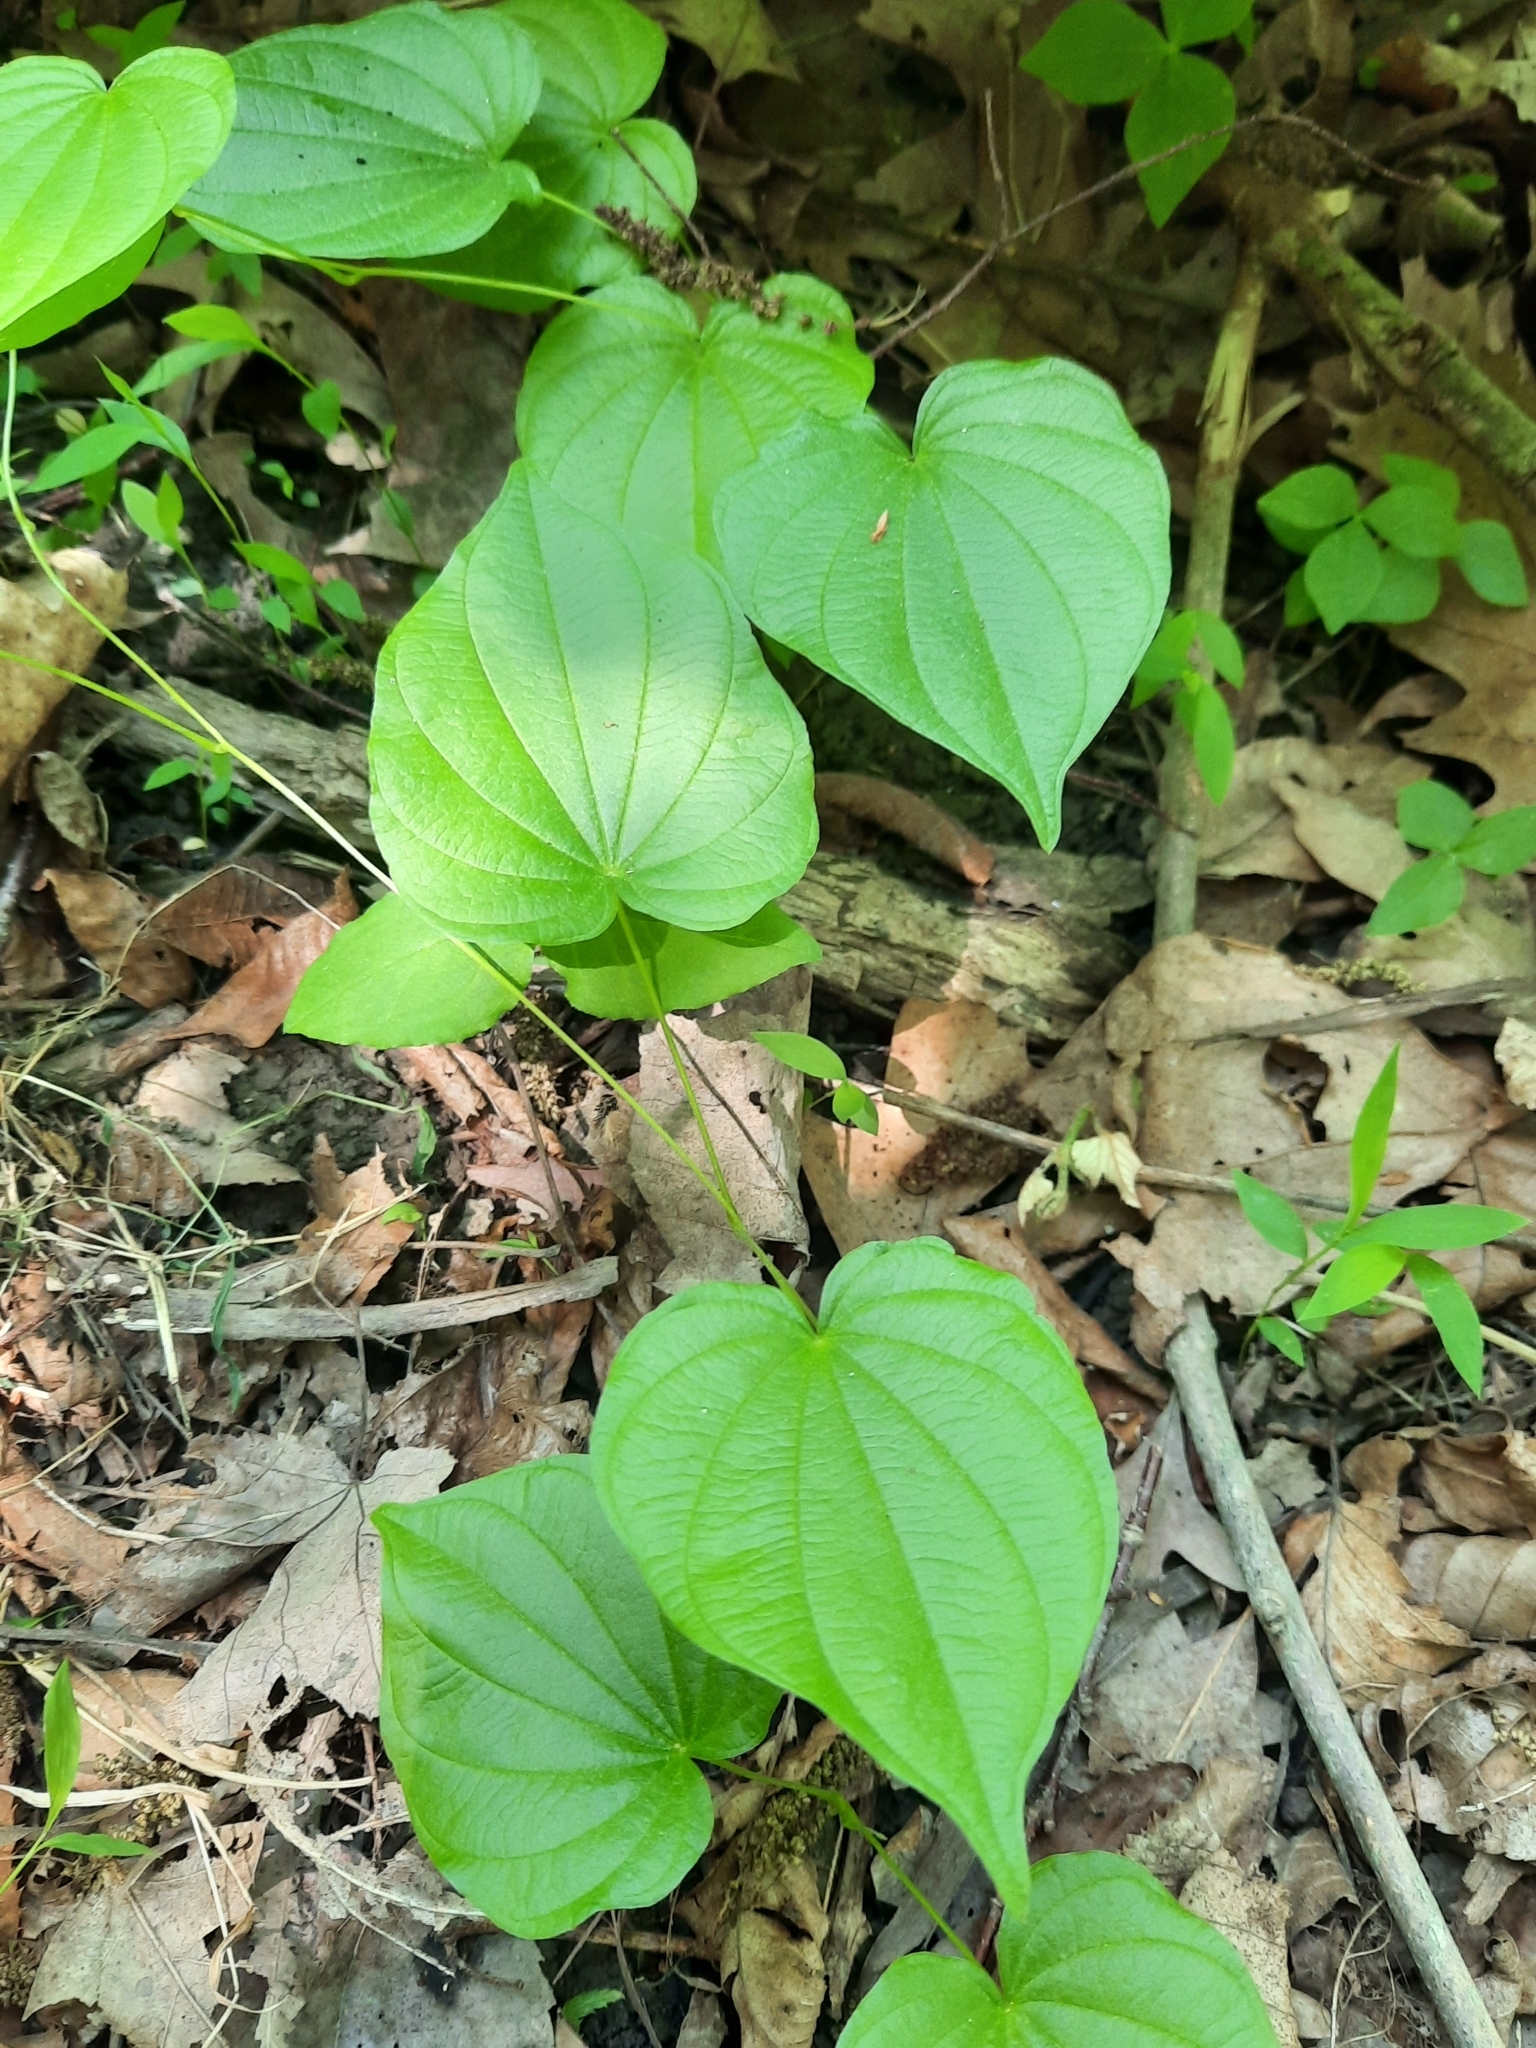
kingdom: Plantae
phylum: Tracheophyta
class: Liliopsida
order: Dioscoreales
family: Dioscoreaceae
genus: Dioscorea
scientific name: Dioscorea villosa
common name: Wild yam
